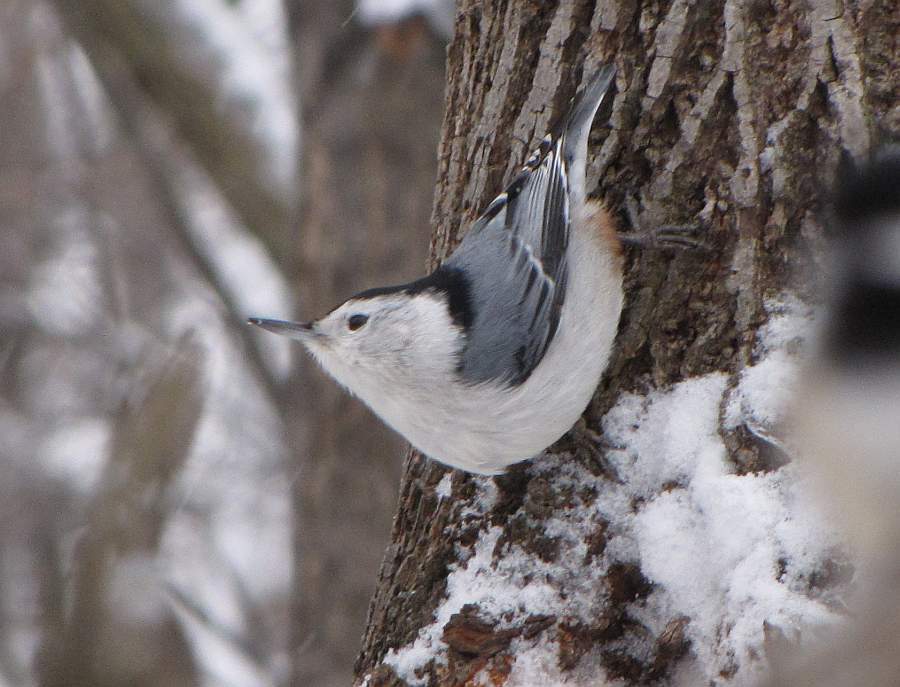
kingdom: Animalia
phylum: Chordata
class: Aves
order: Passeriformes
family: Sittidae
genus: Sitta
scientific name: Sitta carolinensis
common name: White-breasted nuthatch
